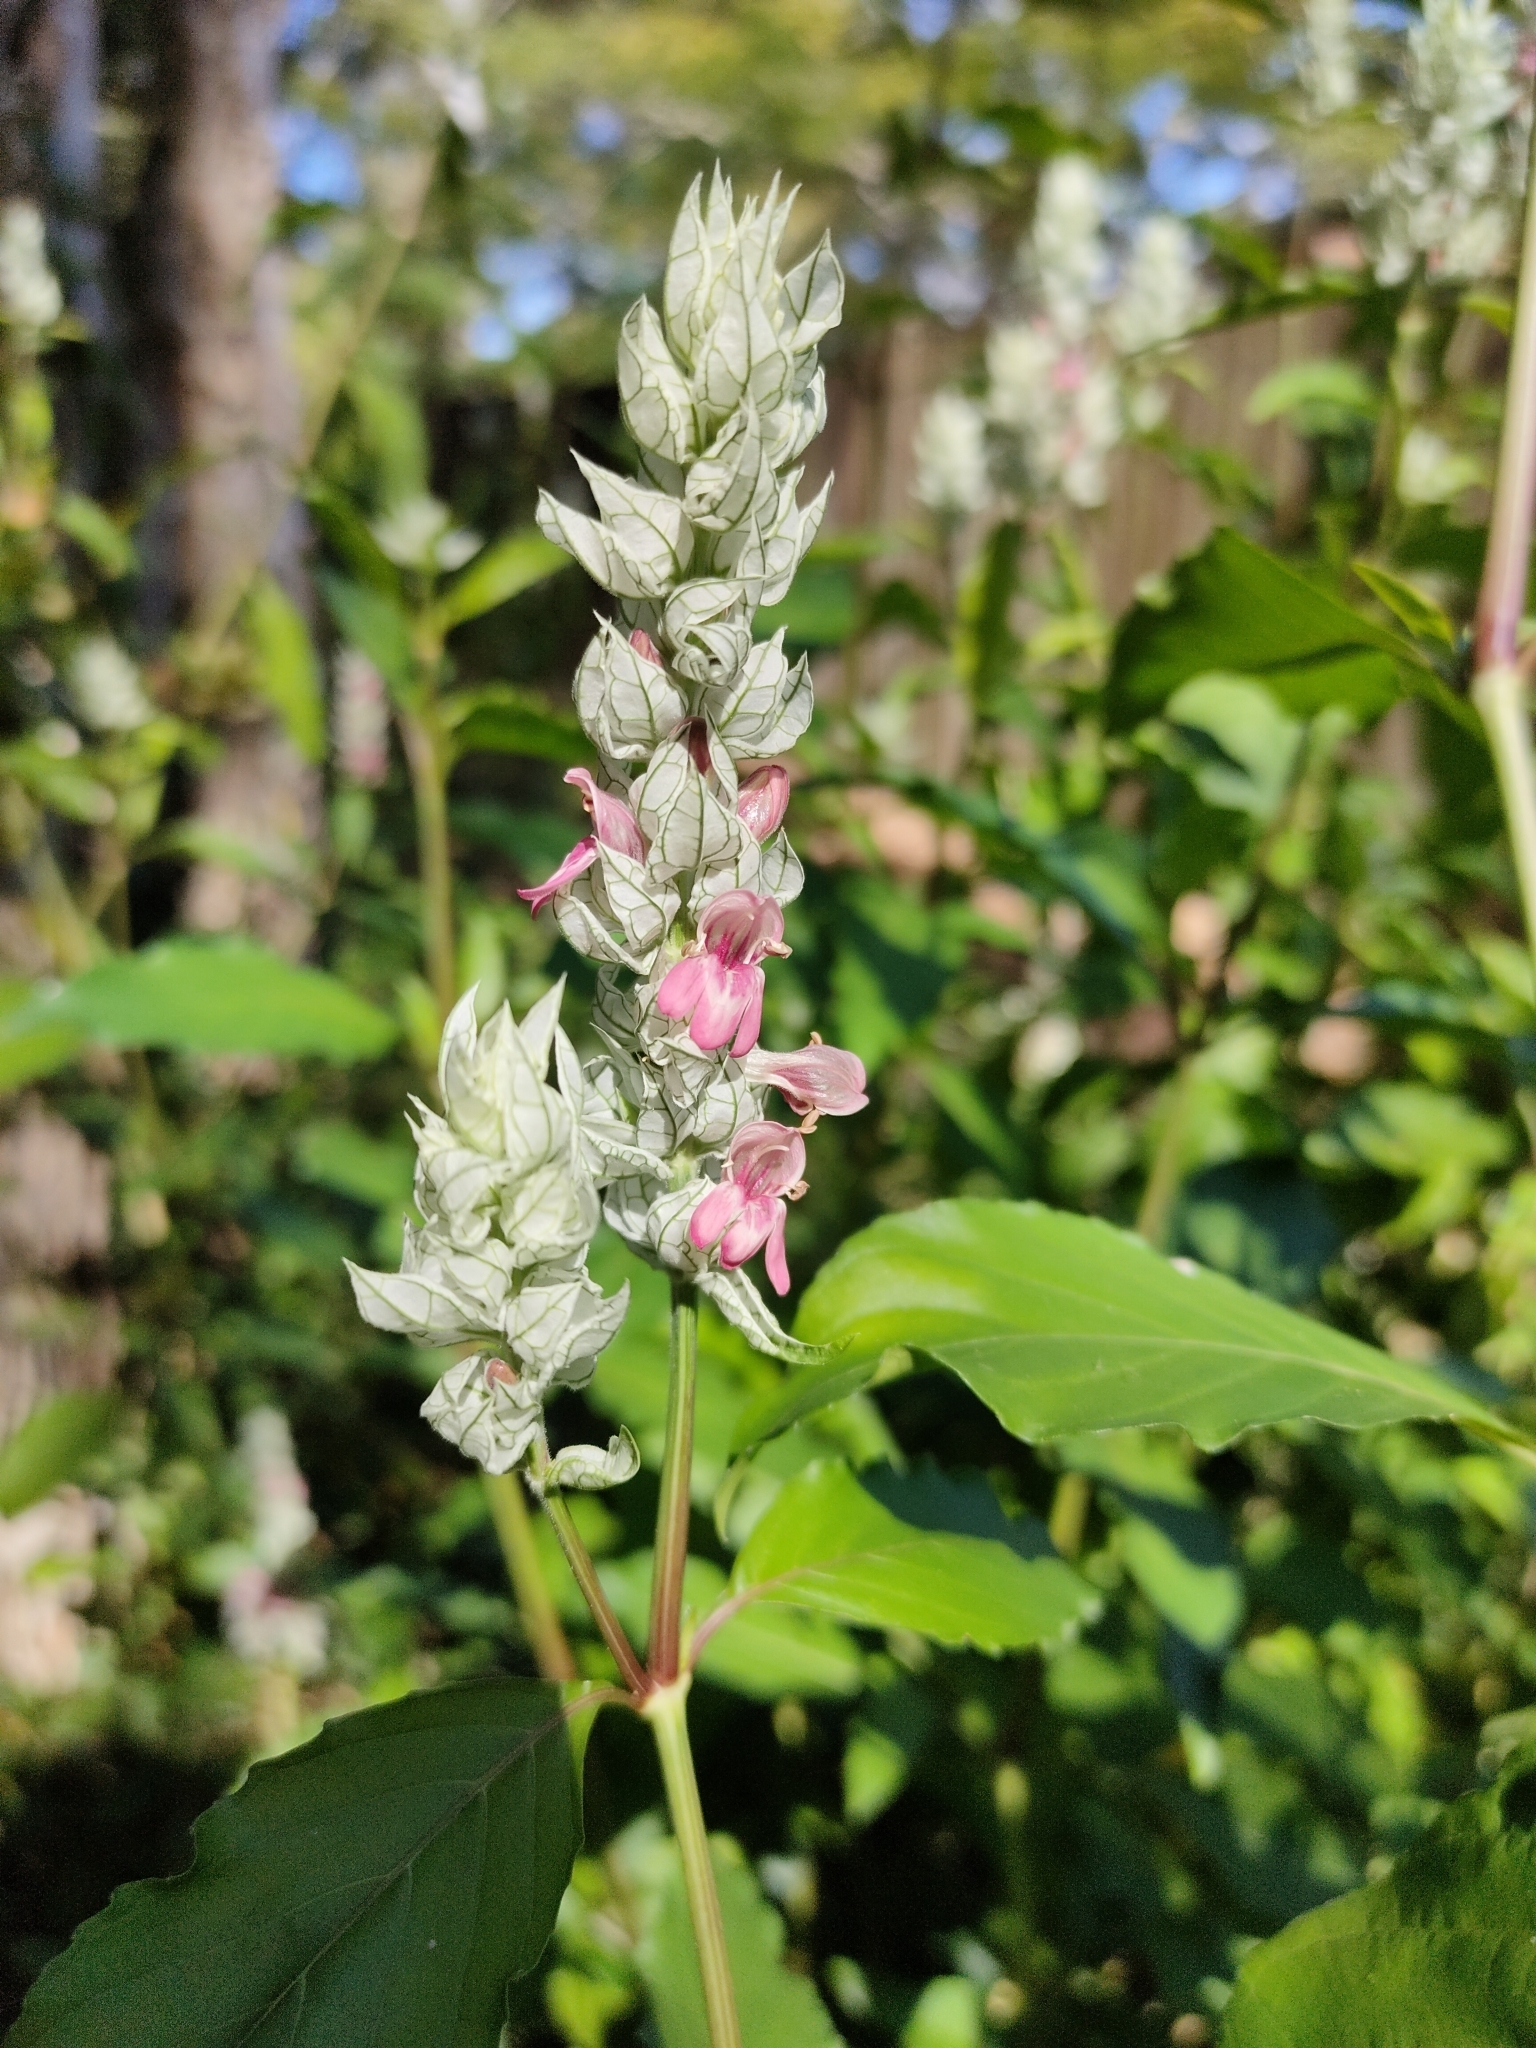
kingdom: Plantae
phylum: Tracheophyta
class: Magnoliopsida
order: Lamiales
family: Acanthaceae
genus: Justicia
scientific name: Justicia betonica
